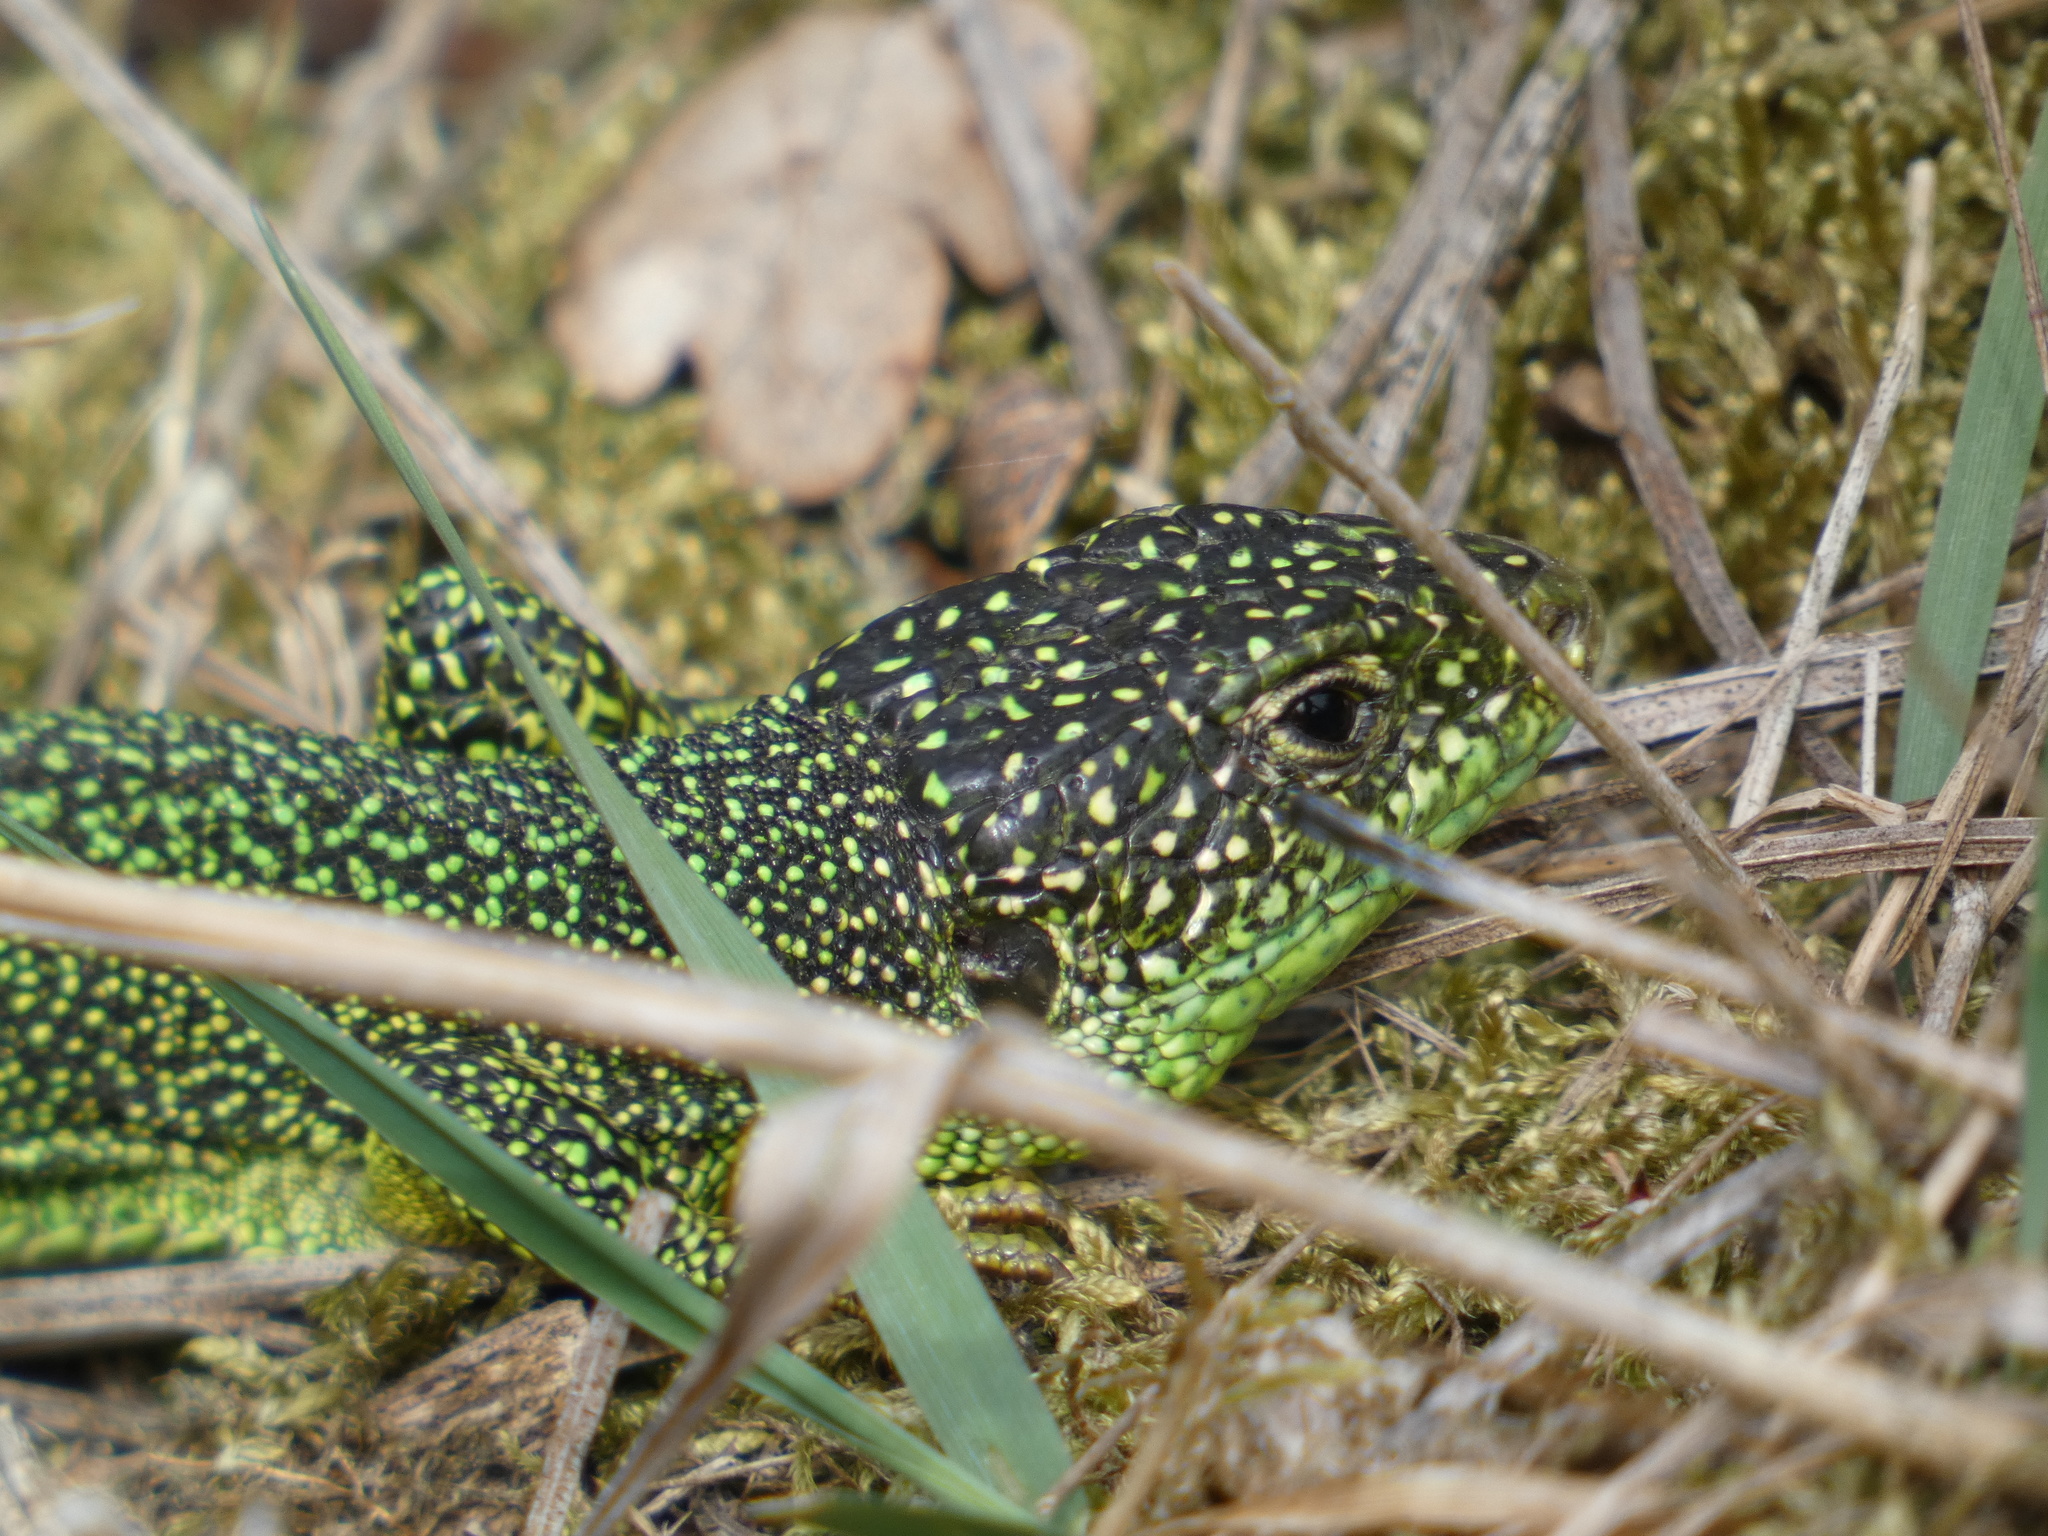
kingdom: Animalia
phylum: Chordata
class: Squamata
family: Lacertidae
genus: Lacerta
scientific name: Lacerta bilineata
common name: Western green lizard
